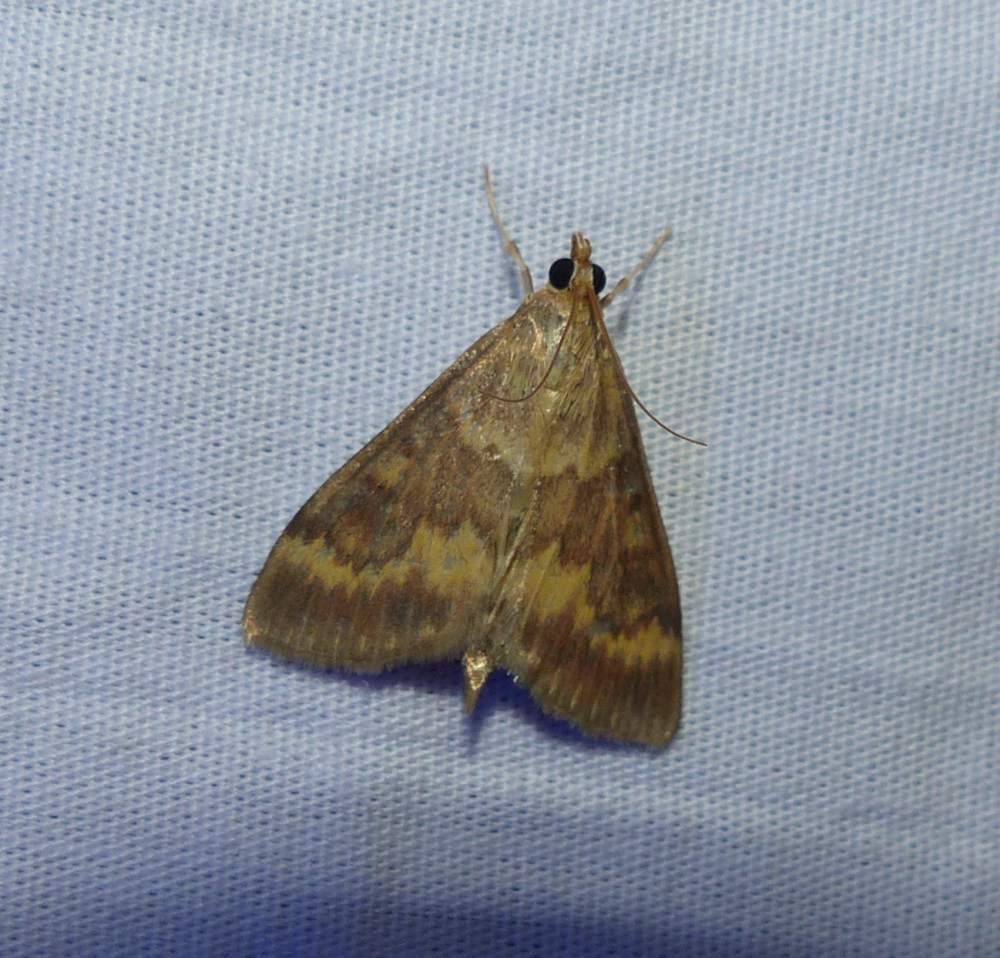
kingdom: Animalia
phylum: Arthropoda
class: Insecta
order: Lepidoptera
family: Crambidae
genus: Ostrinia
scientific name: Ostrinia nubilalis
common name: European corn borer
